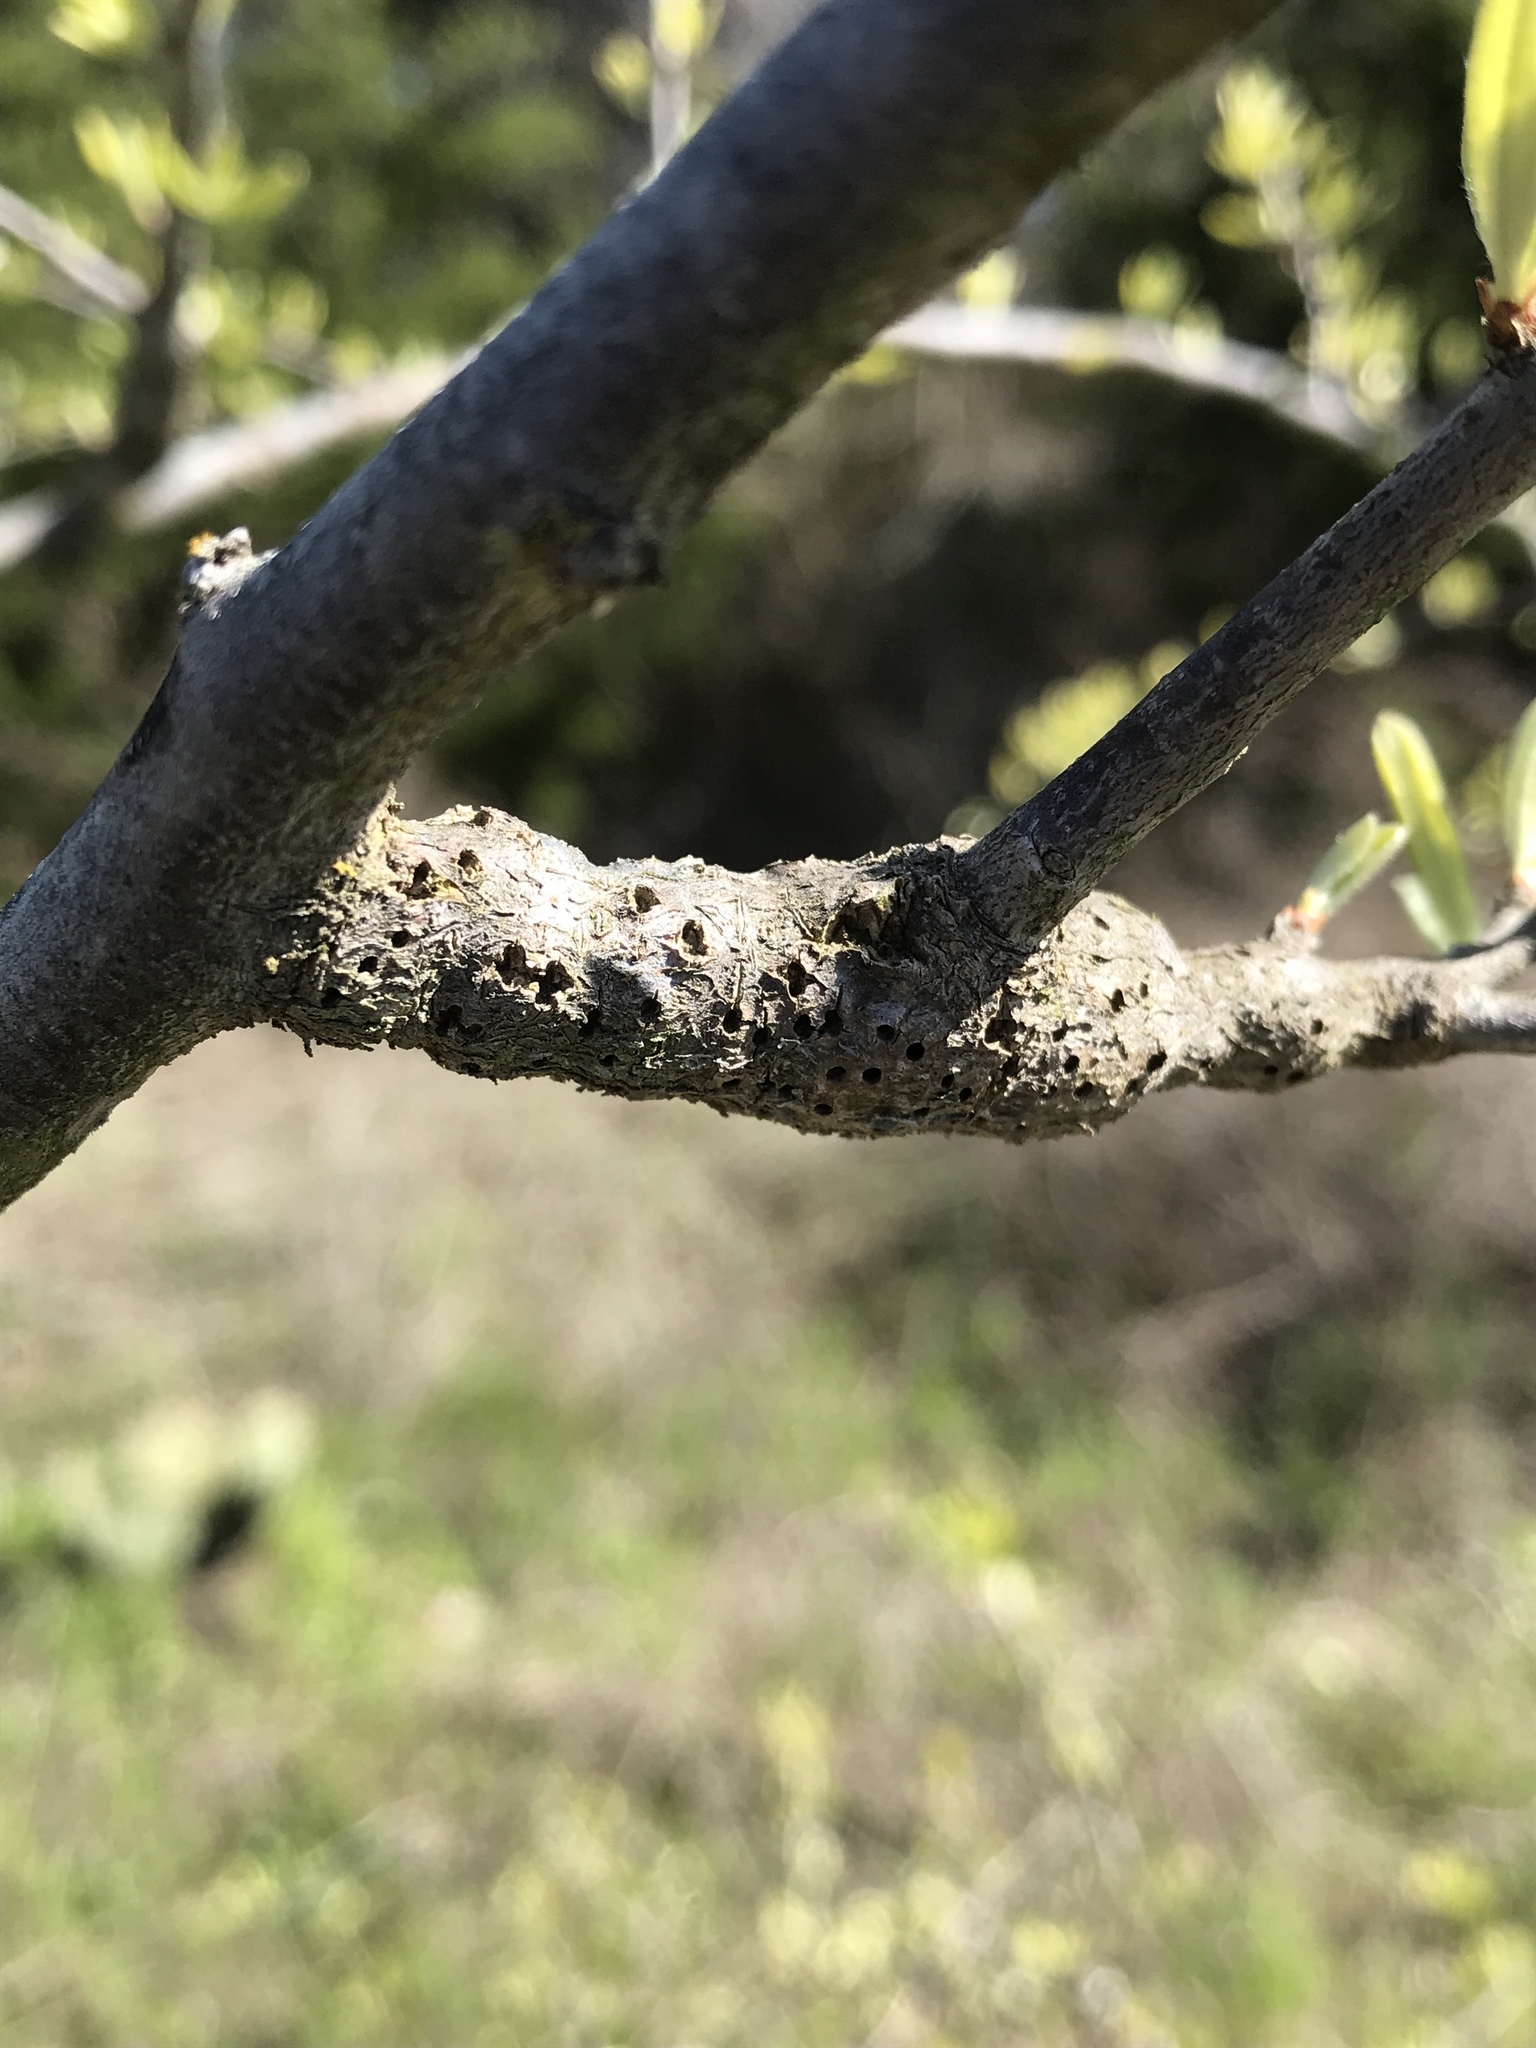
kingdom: Animalia
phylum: Arthropoda
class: Insecta
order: Diptera
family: Cecidomyiidae
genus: Bruggmanniella
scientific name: Bruggmanniella bumeliae
